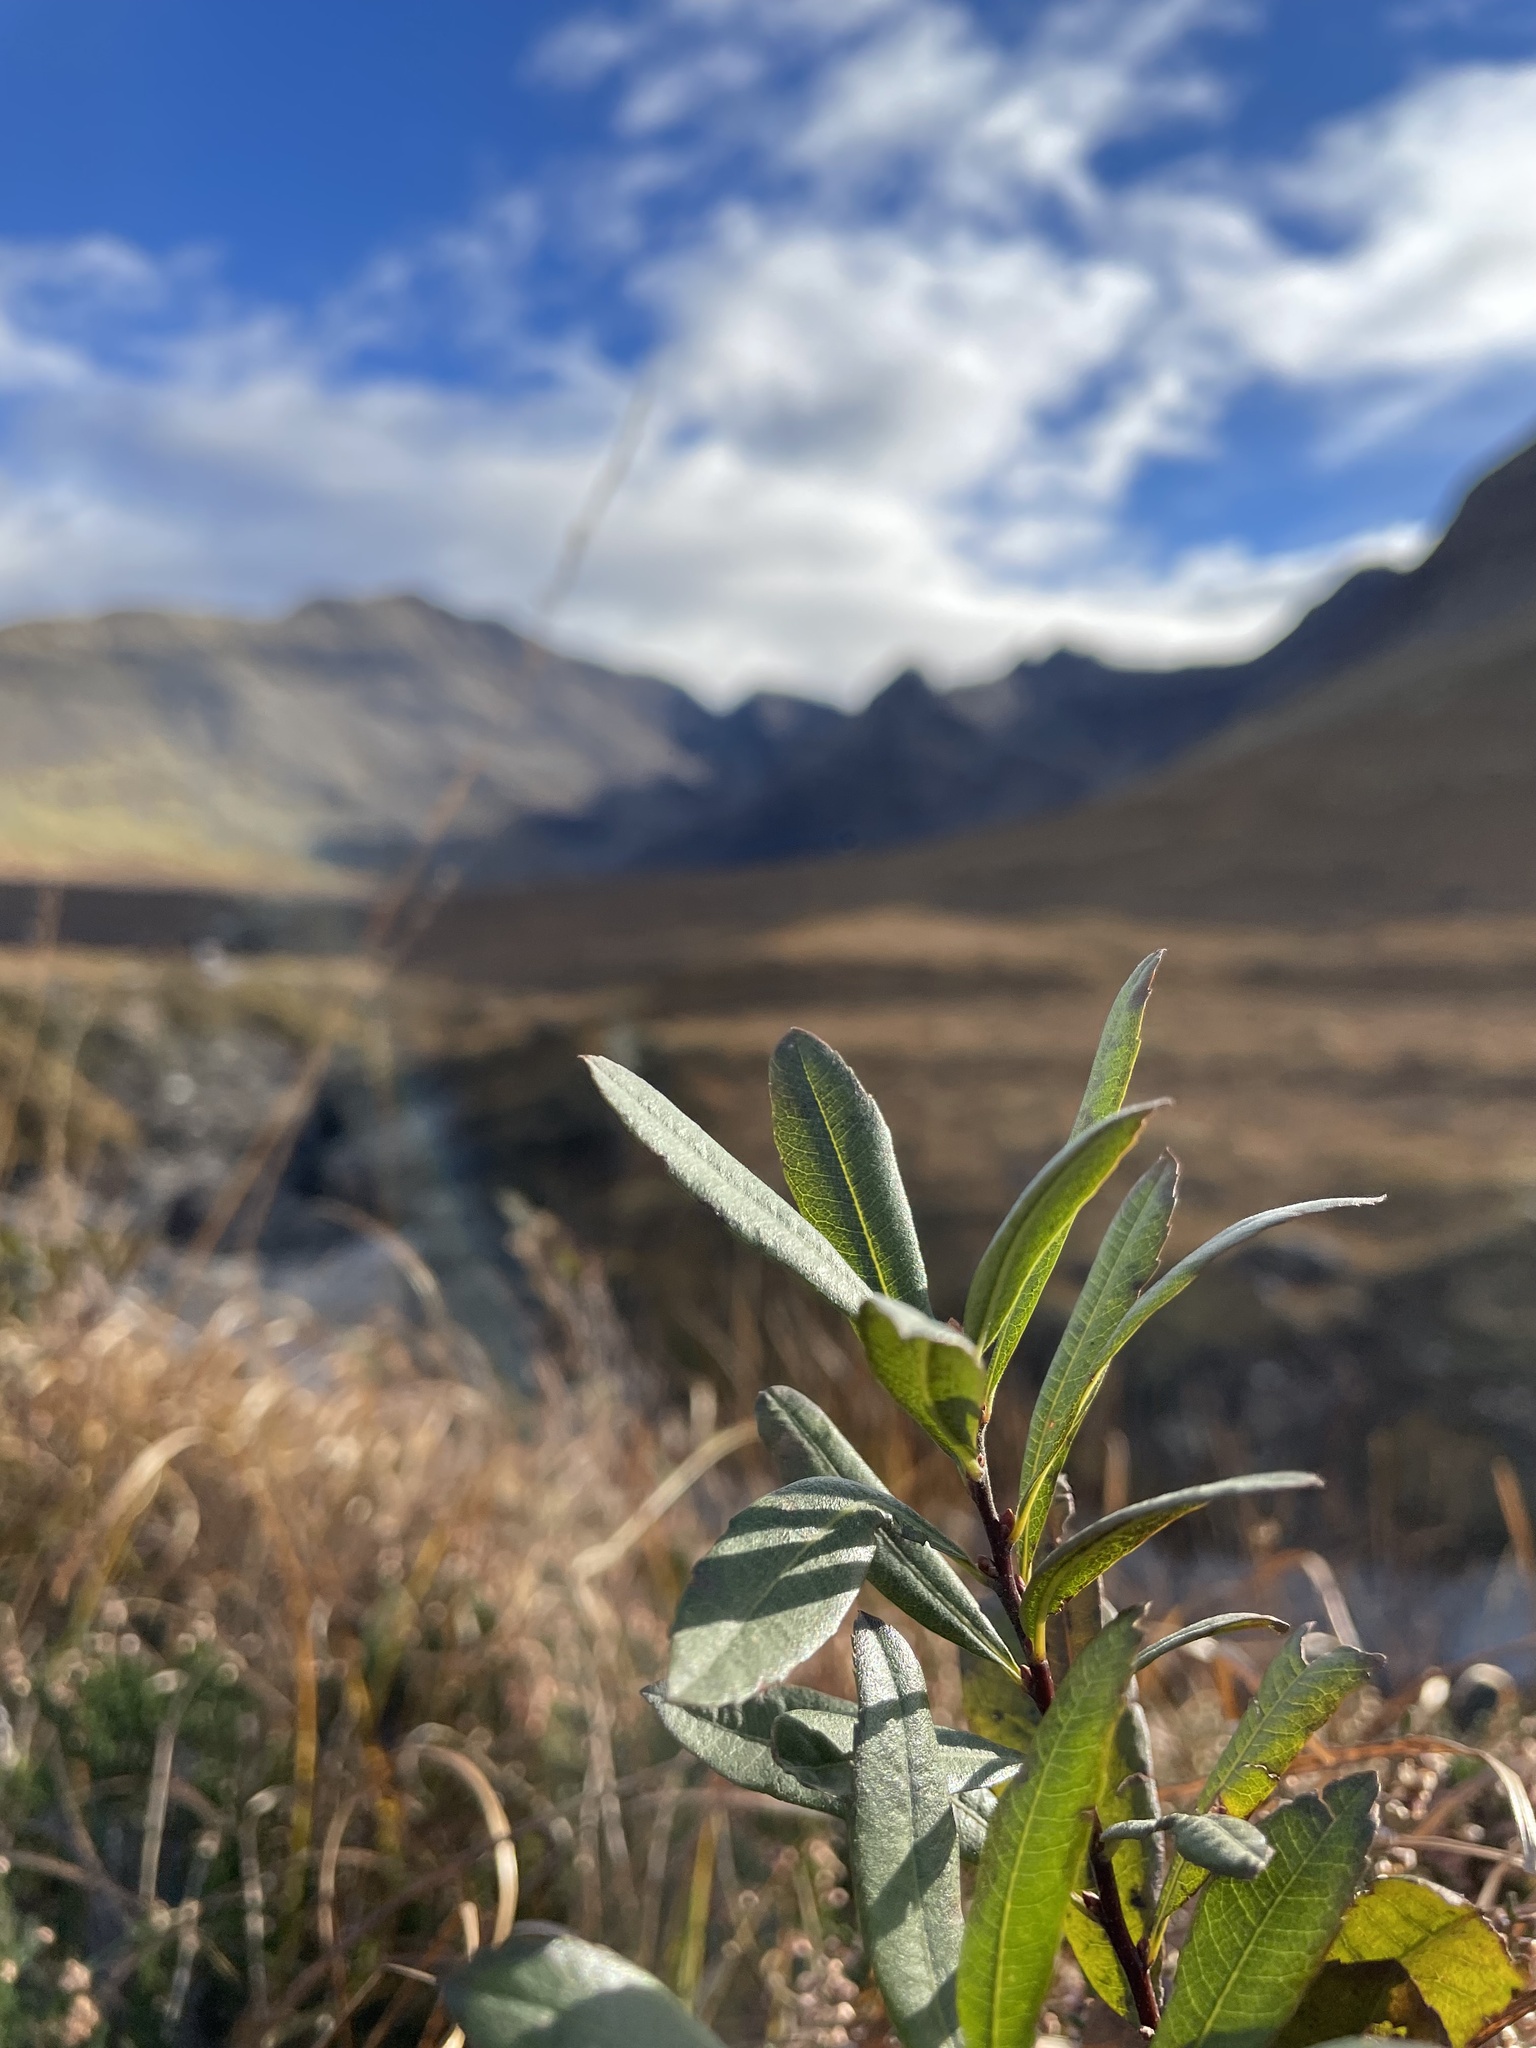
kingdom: Plantae
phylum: Tracheophyta
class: Magnoliopsida
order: Fagales
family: Myricaceae
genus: Myrica
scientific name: Myrica gale
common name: Sweet gale
